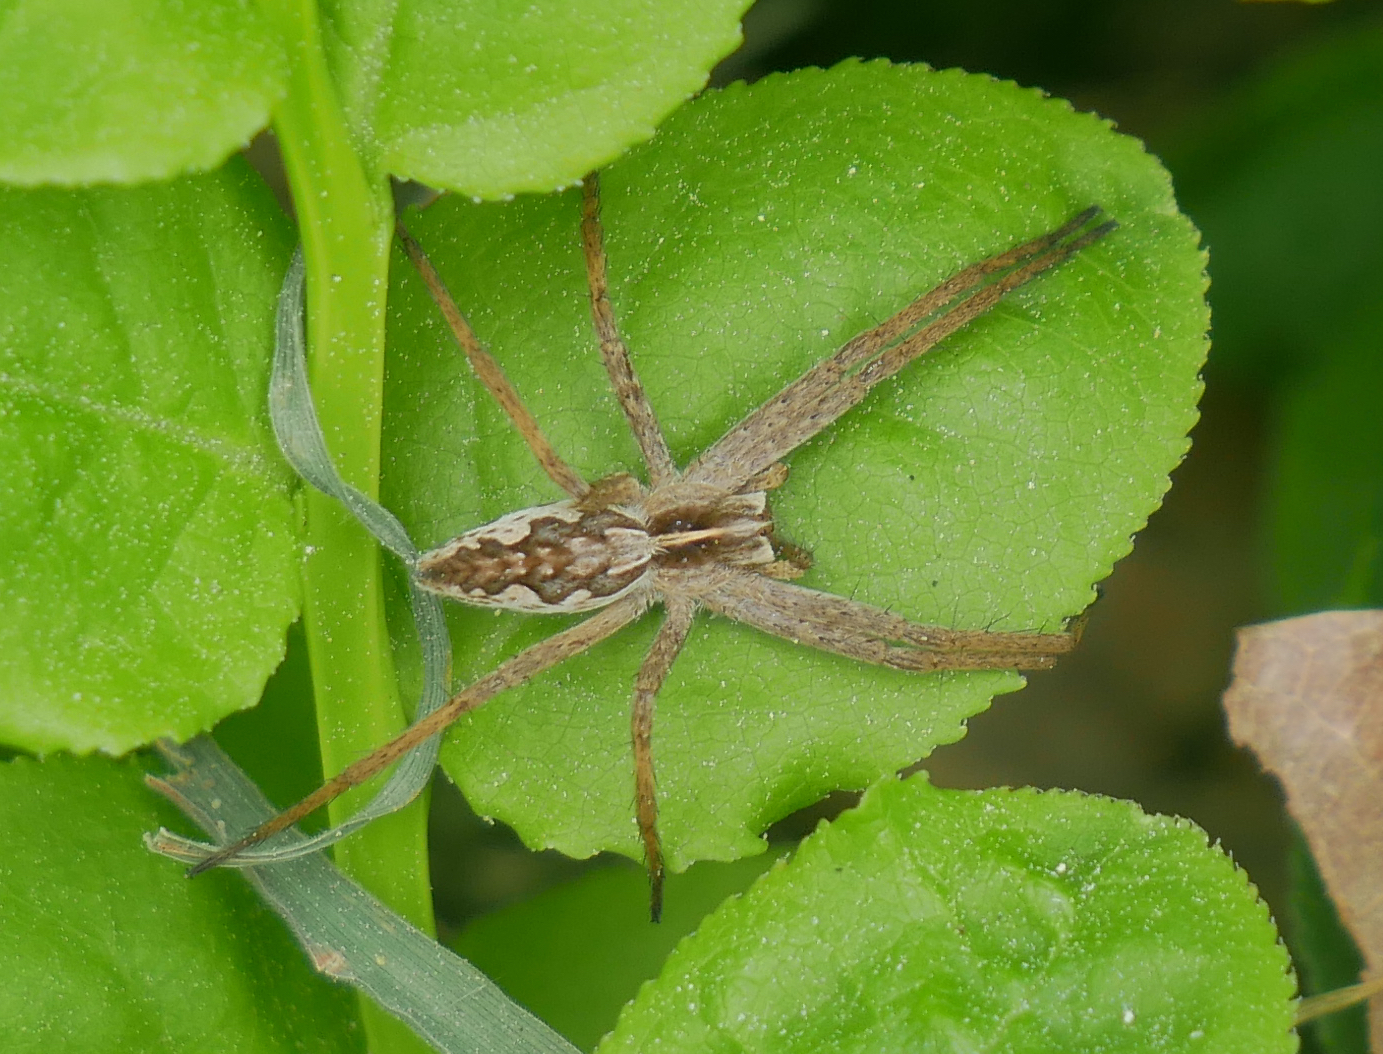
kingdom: Animalia
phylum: Arthropoda
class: Arachnida
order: Araneae
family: Pisauridae
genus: Pisaura
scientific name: Pisaura mirabilis
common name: Tent spider
